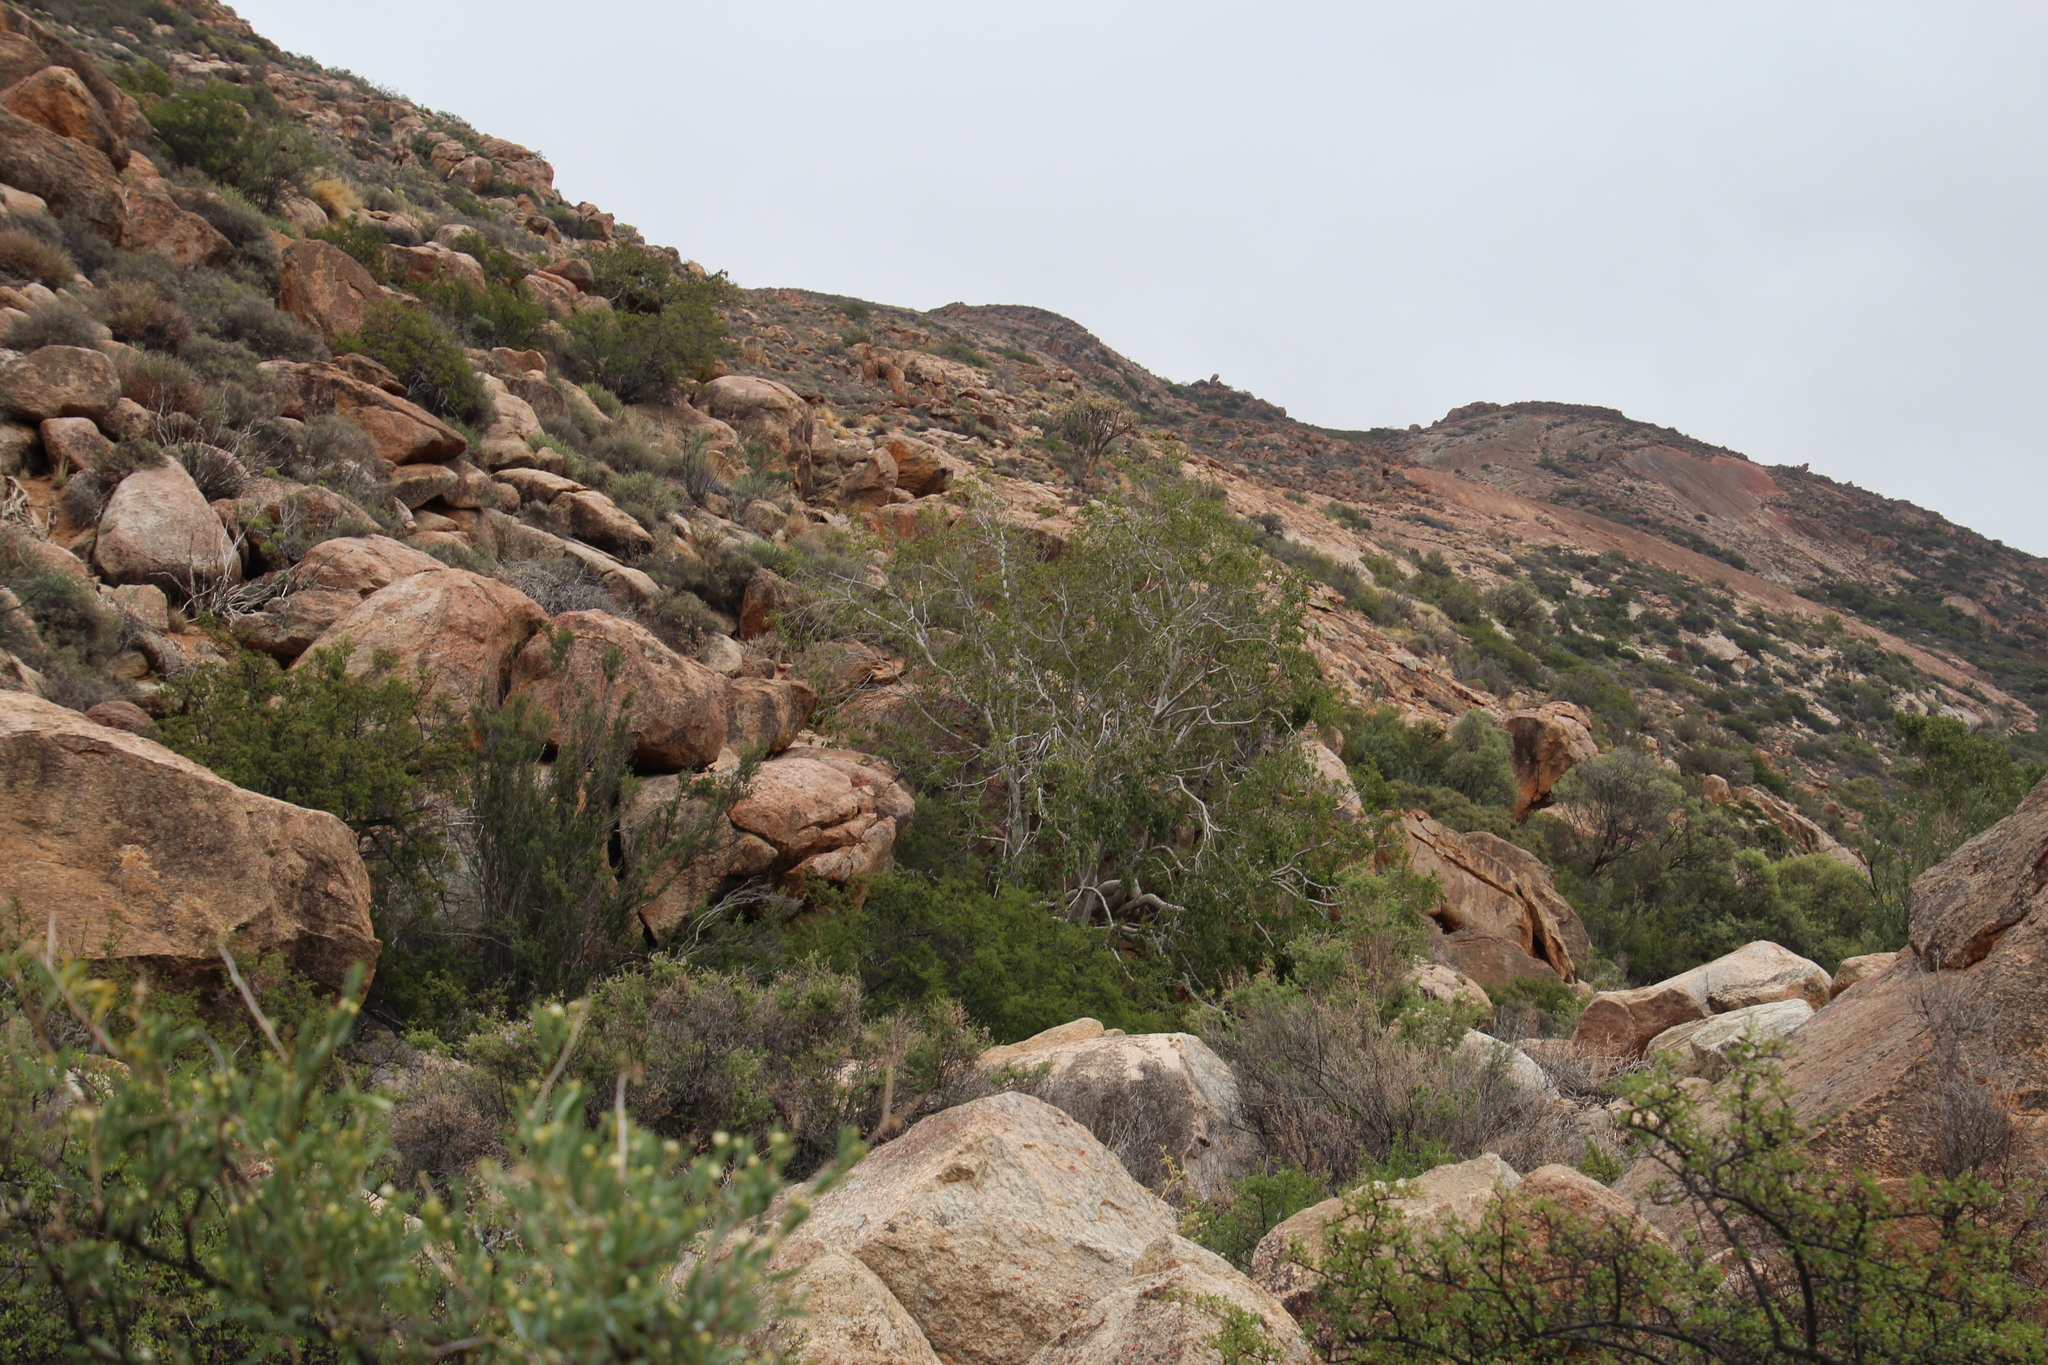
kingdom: Plantae
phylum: Tracheophyta
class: Magnoliopsida
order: Rosales
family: Moraceae
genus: Ficus
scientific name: Ficus cordata
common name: Namaqua rock fig
